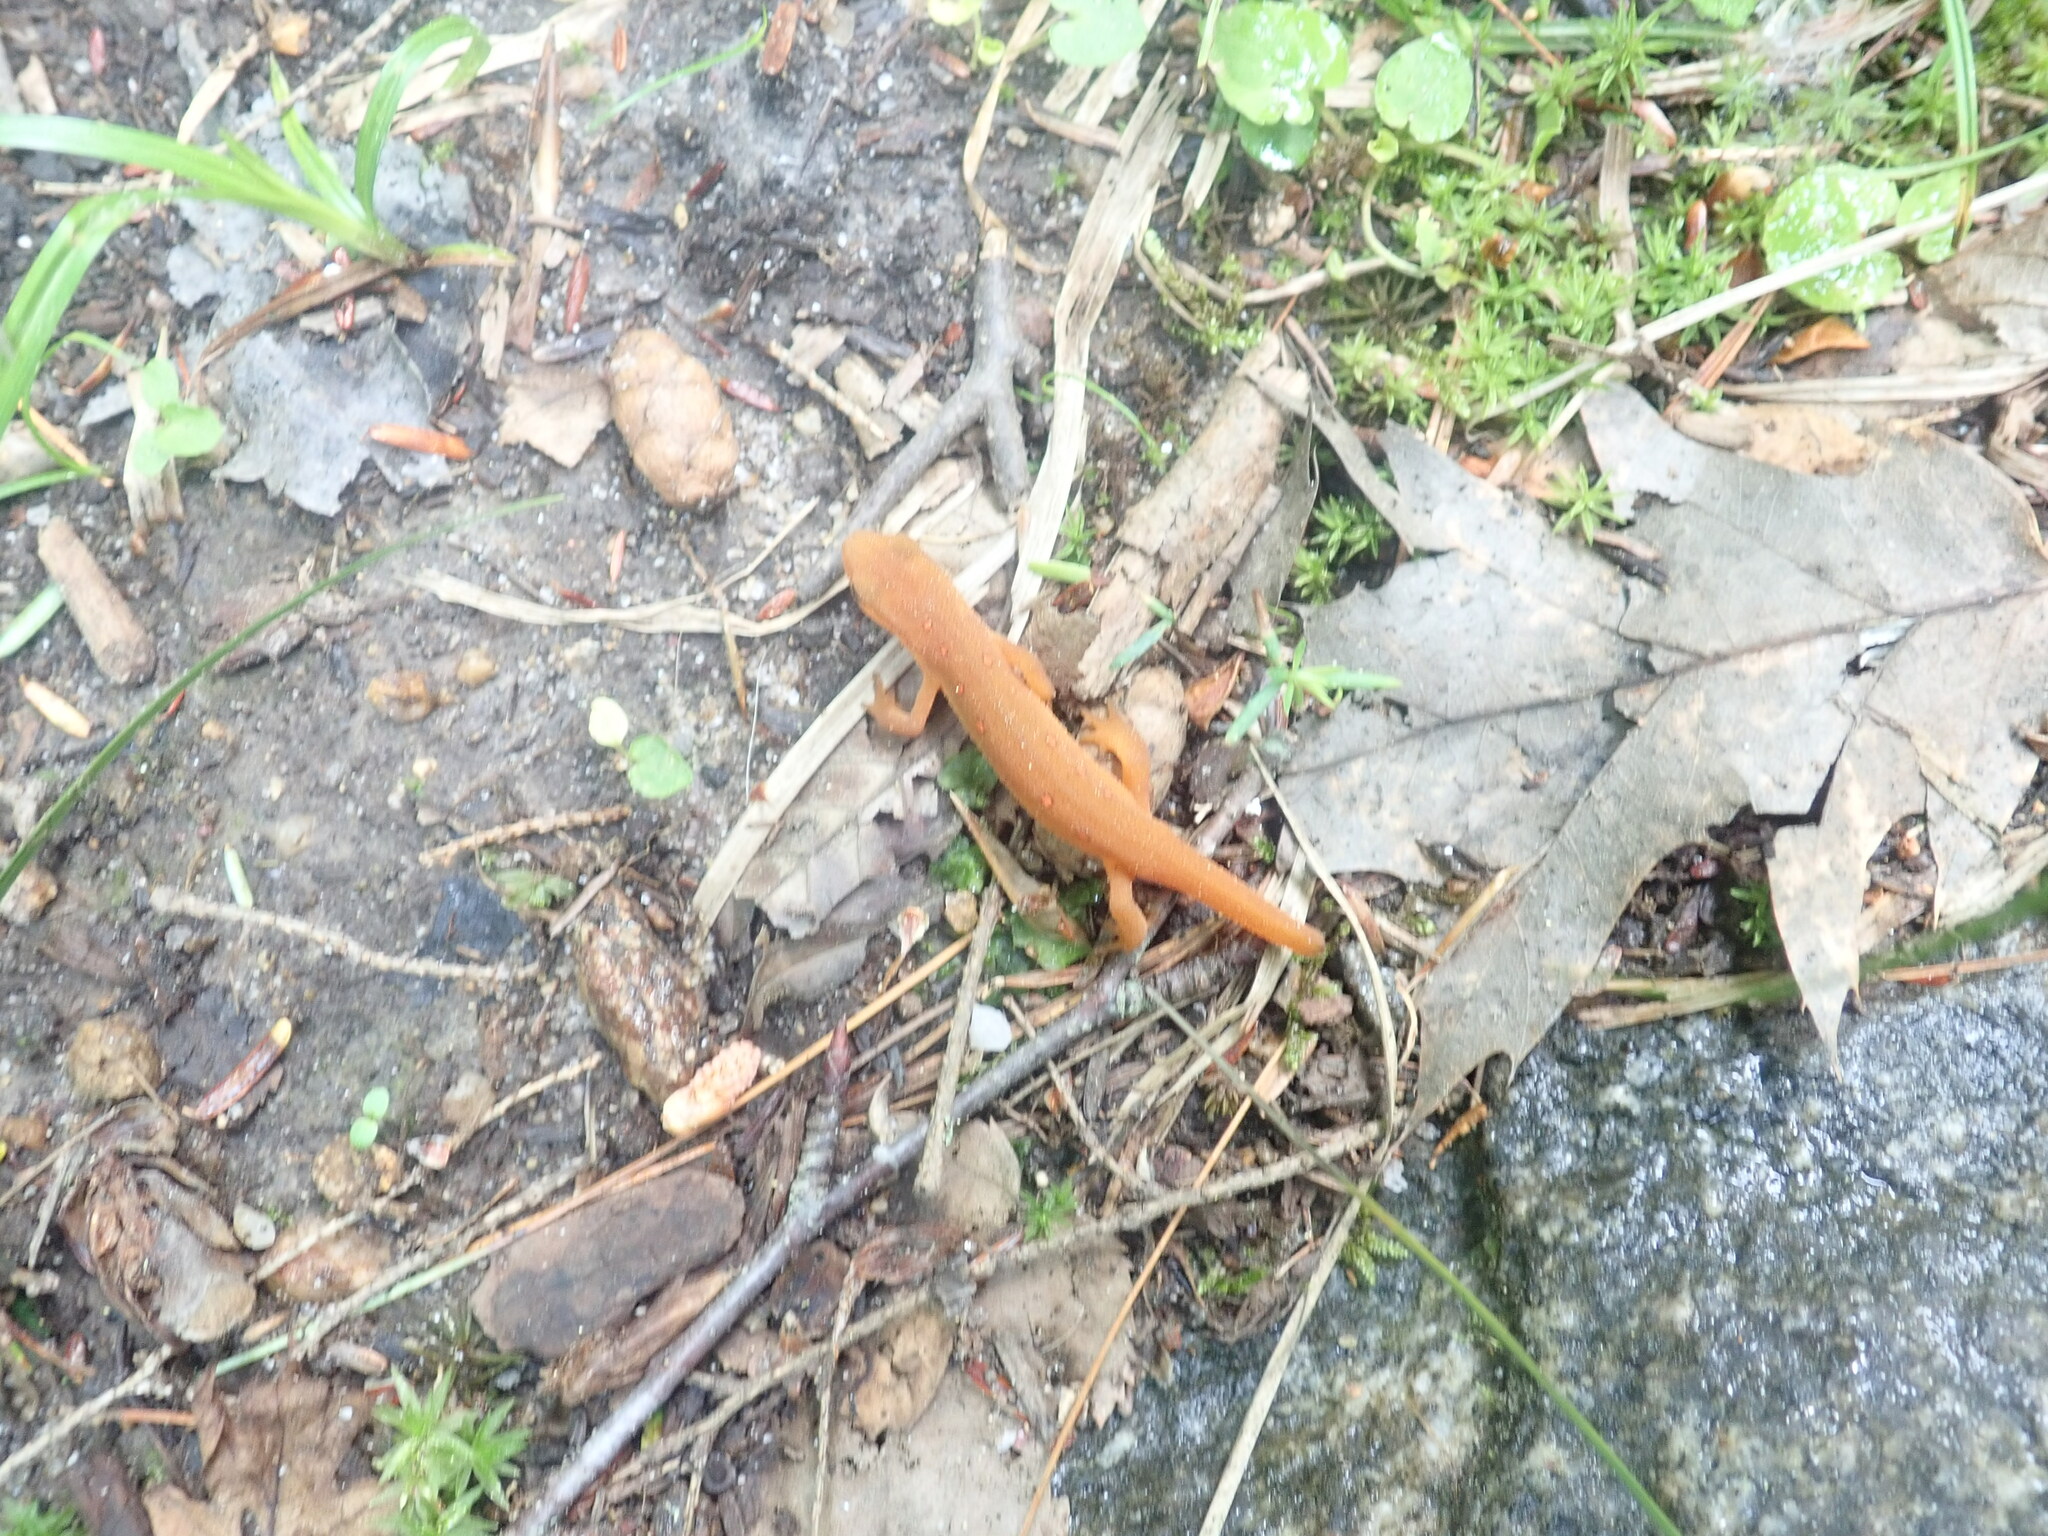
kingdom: Animalia
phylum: Chordata
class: Amphibia
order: Caudata
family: Salamandridae
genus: Notophthalmus
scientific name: Notophthalmus viridescens
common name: Eastern newt
